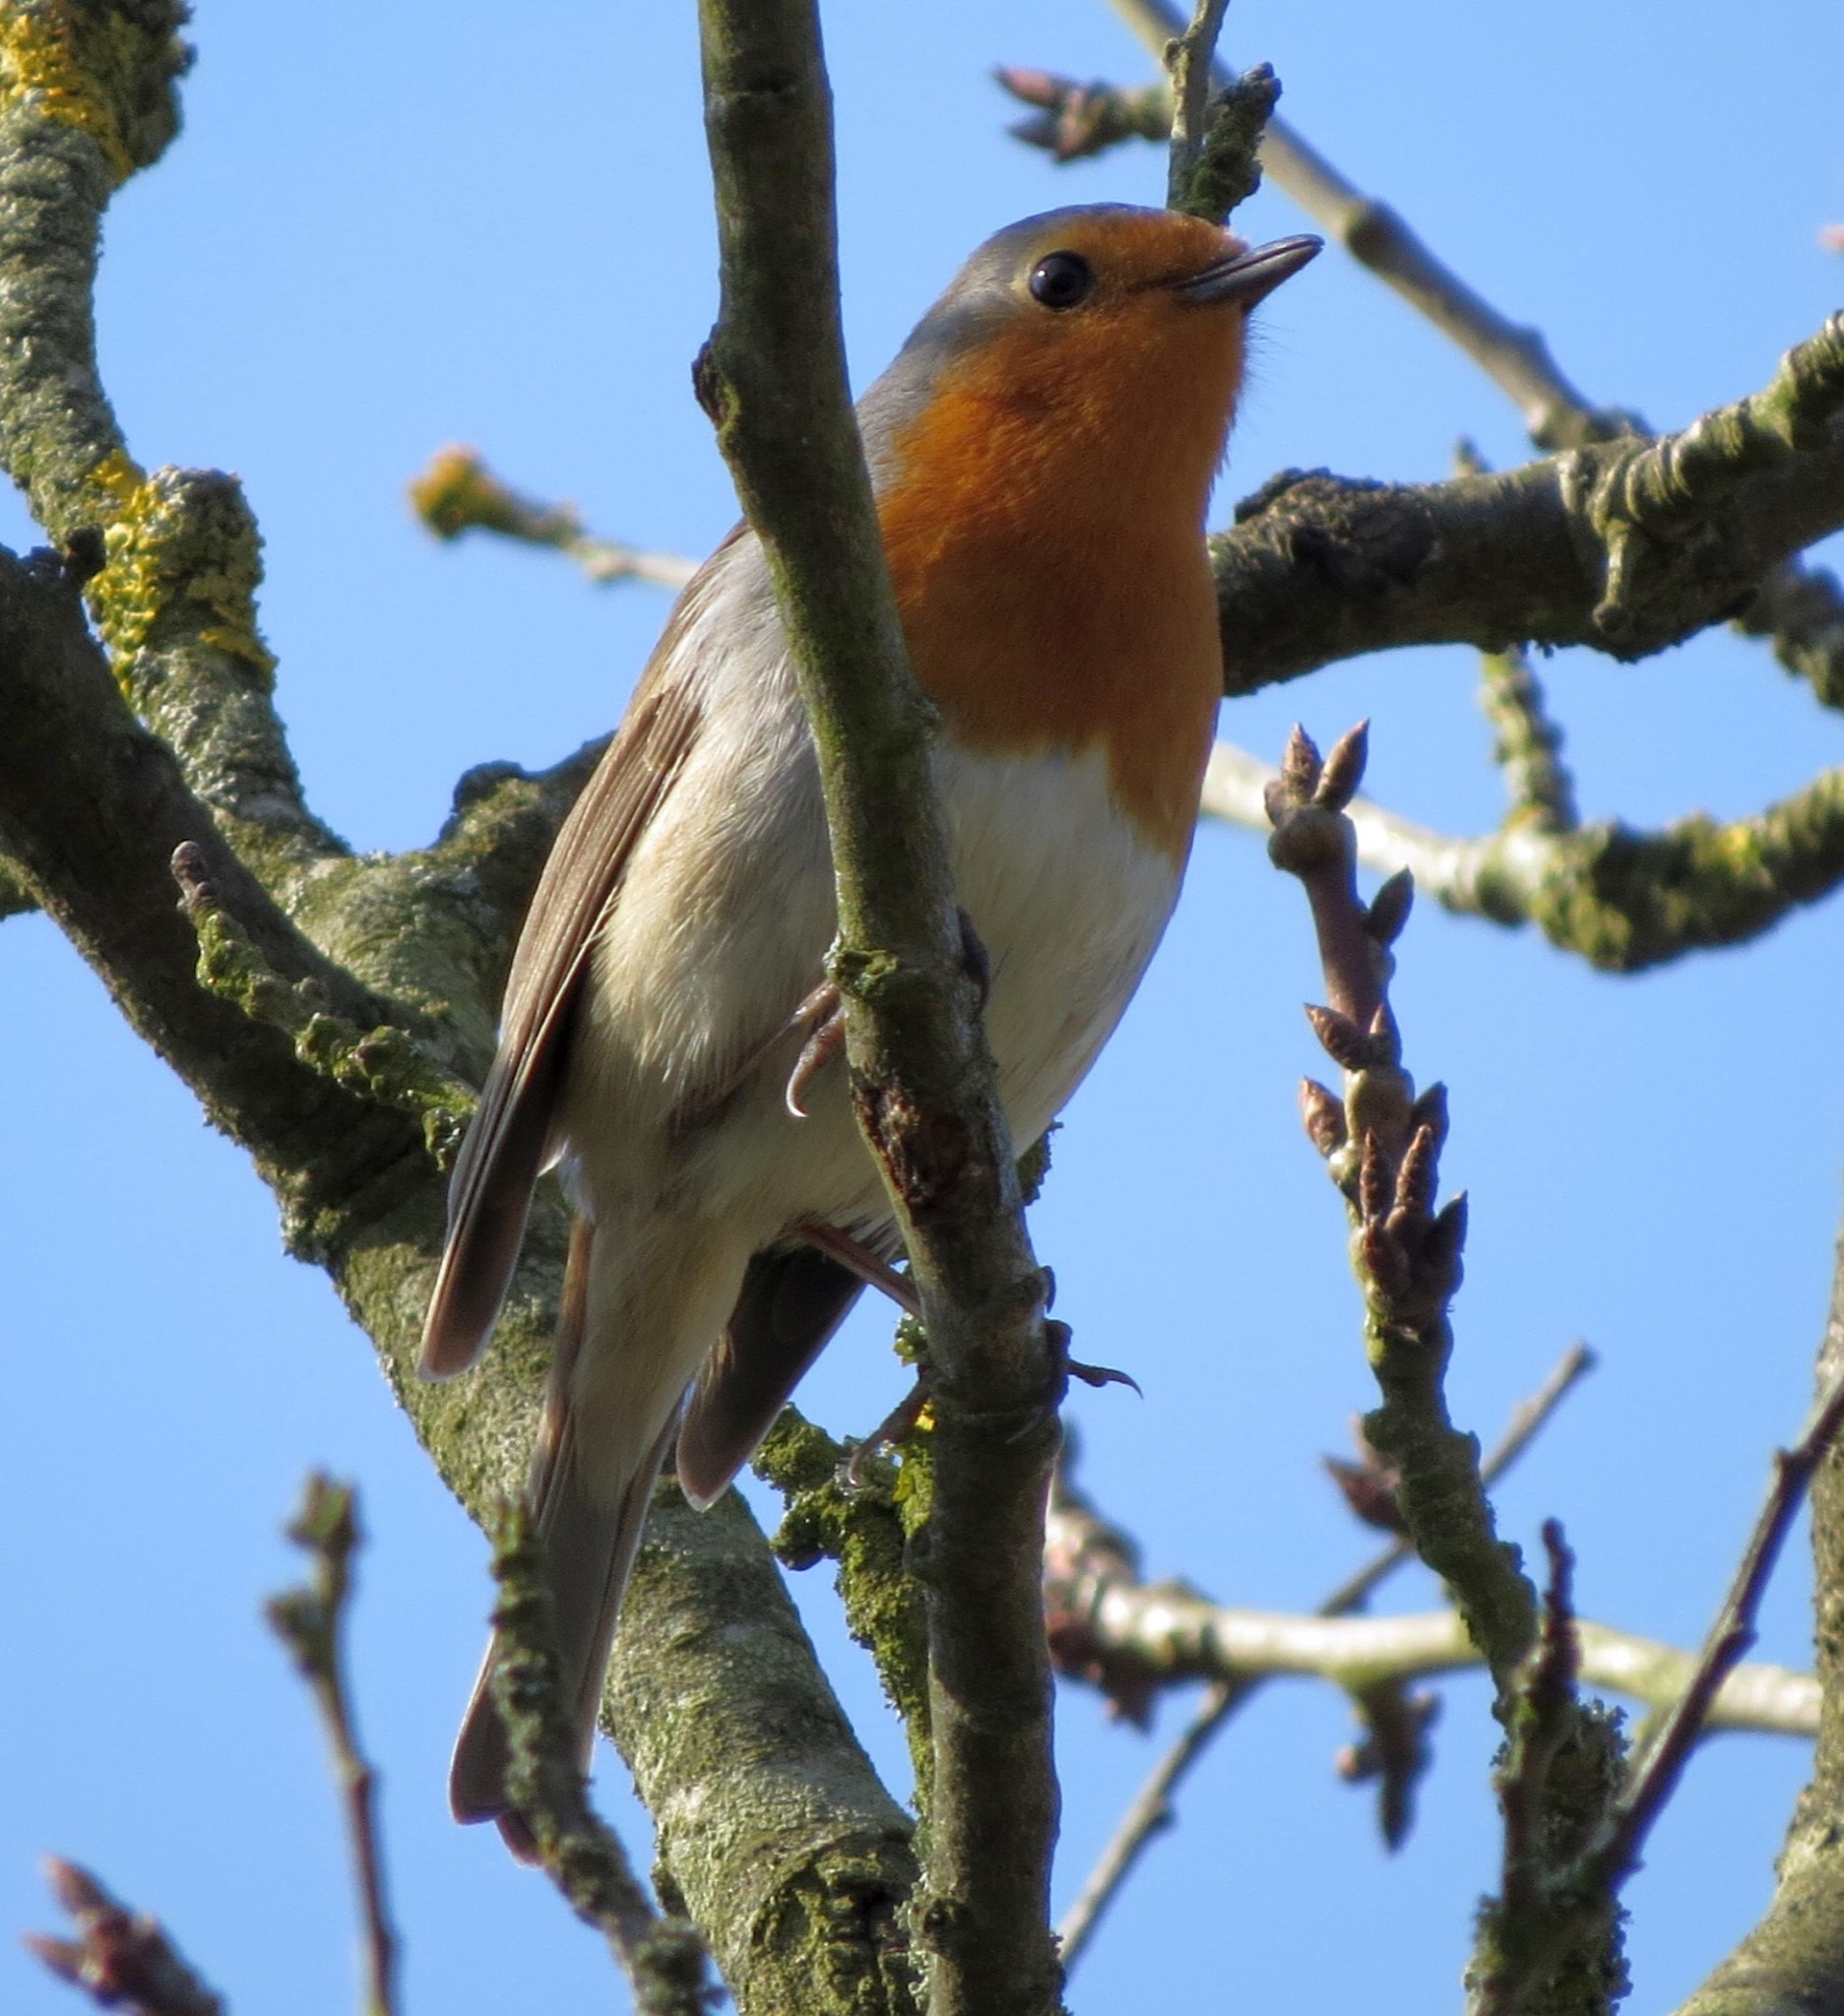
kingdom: Animalia
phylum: Chordata
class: Aves
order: Passeriformes
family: Muscicapidae
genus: Erithacus
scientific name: Erithacus rubecula
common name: European robin
